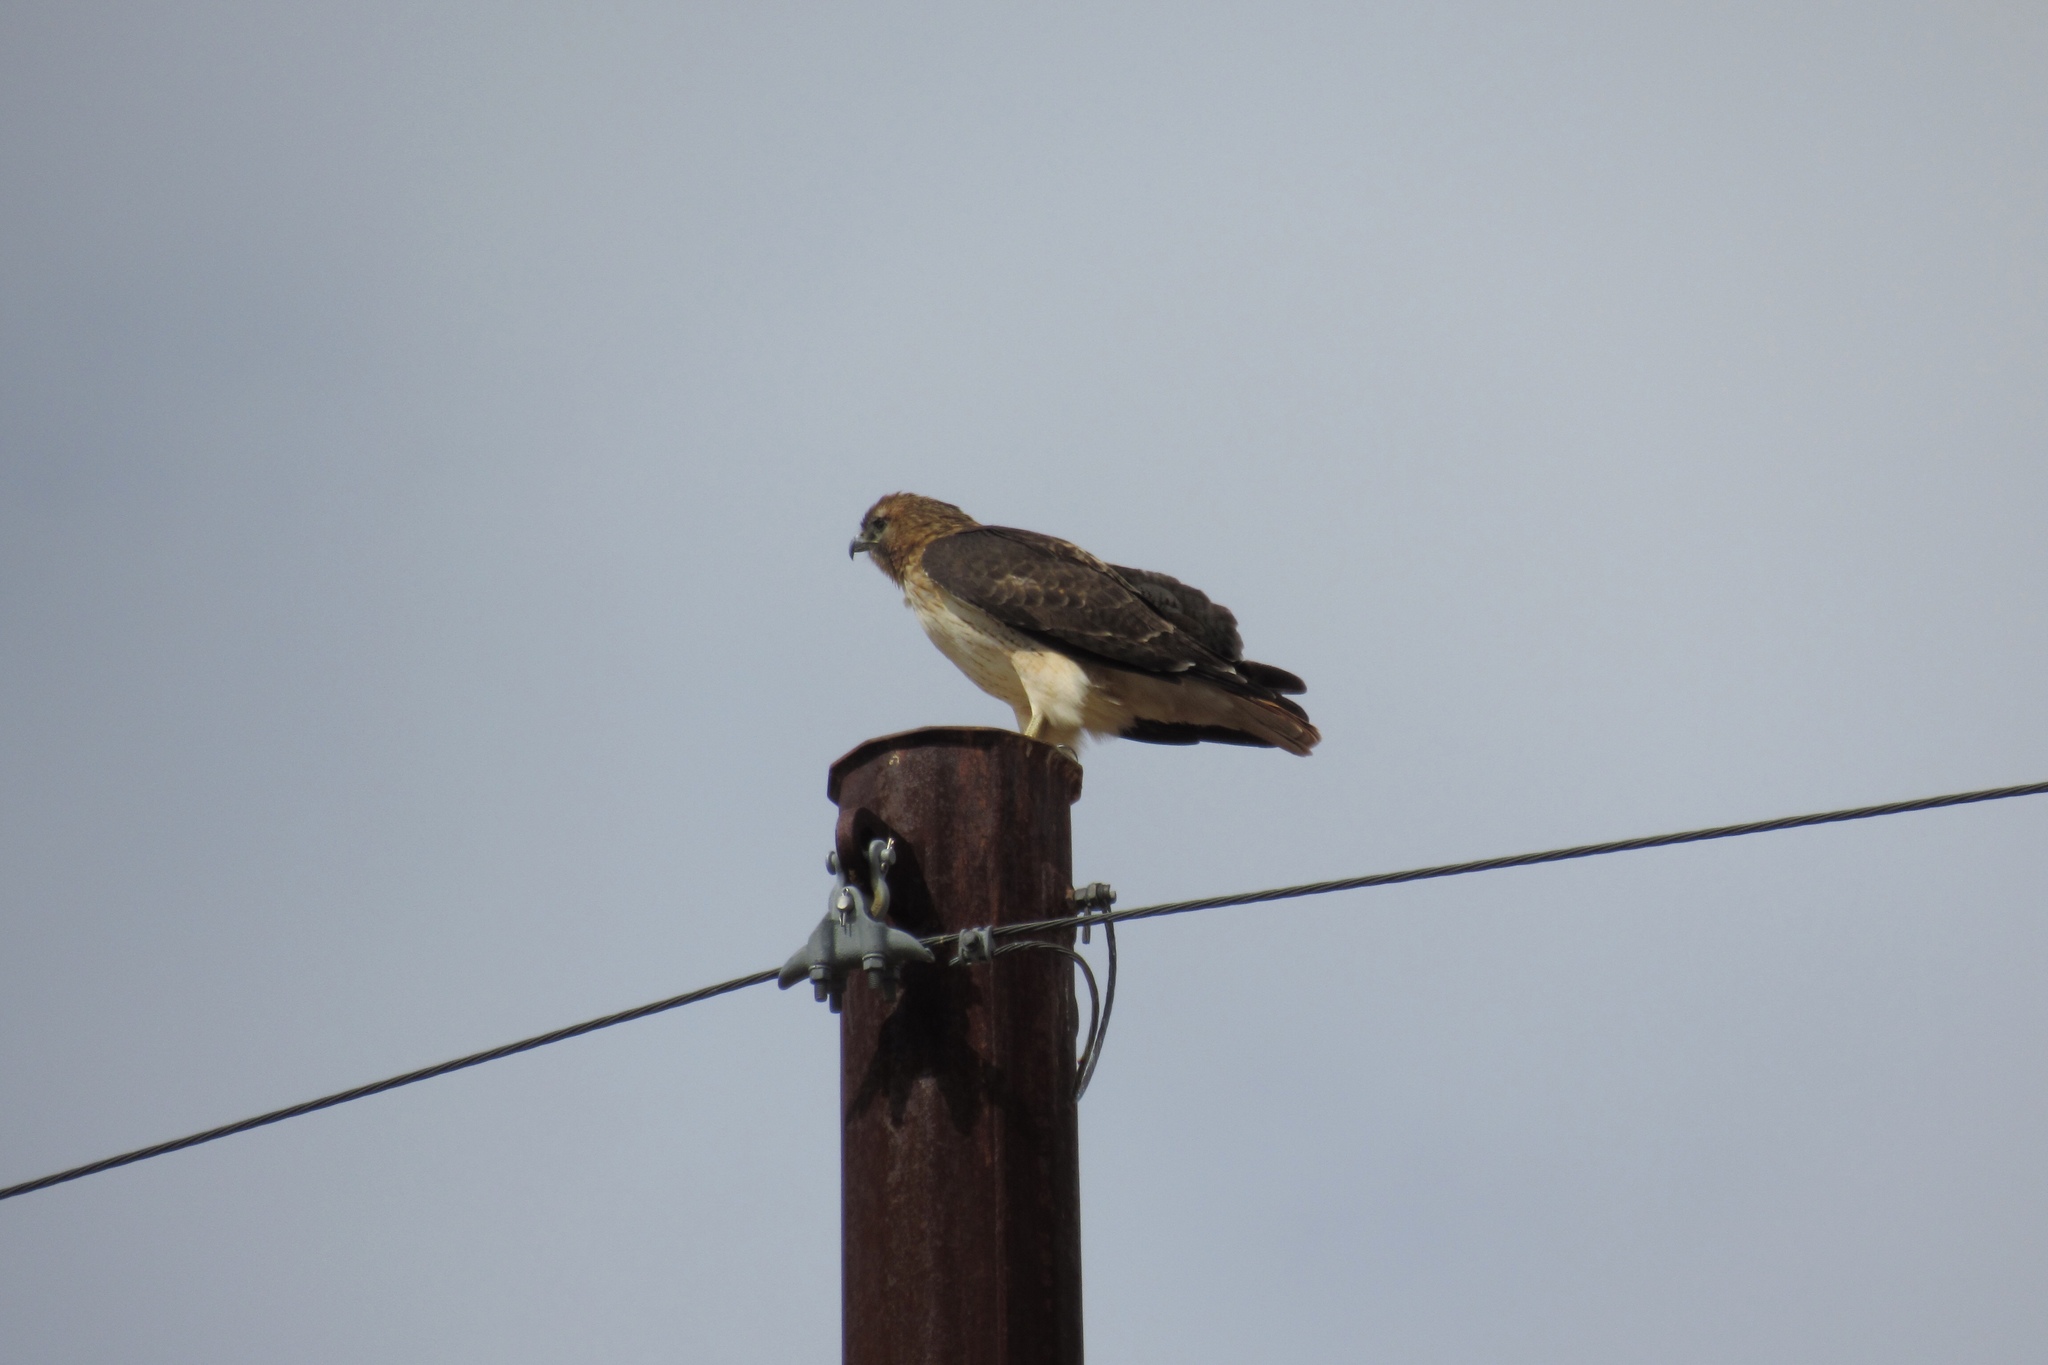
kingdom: Animalia
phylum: Chordata
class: Aves
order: Accipitriformes
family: Accipitridae
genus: Buteo
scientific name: Buteo jamaicensis
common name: Red-tailed hawk
